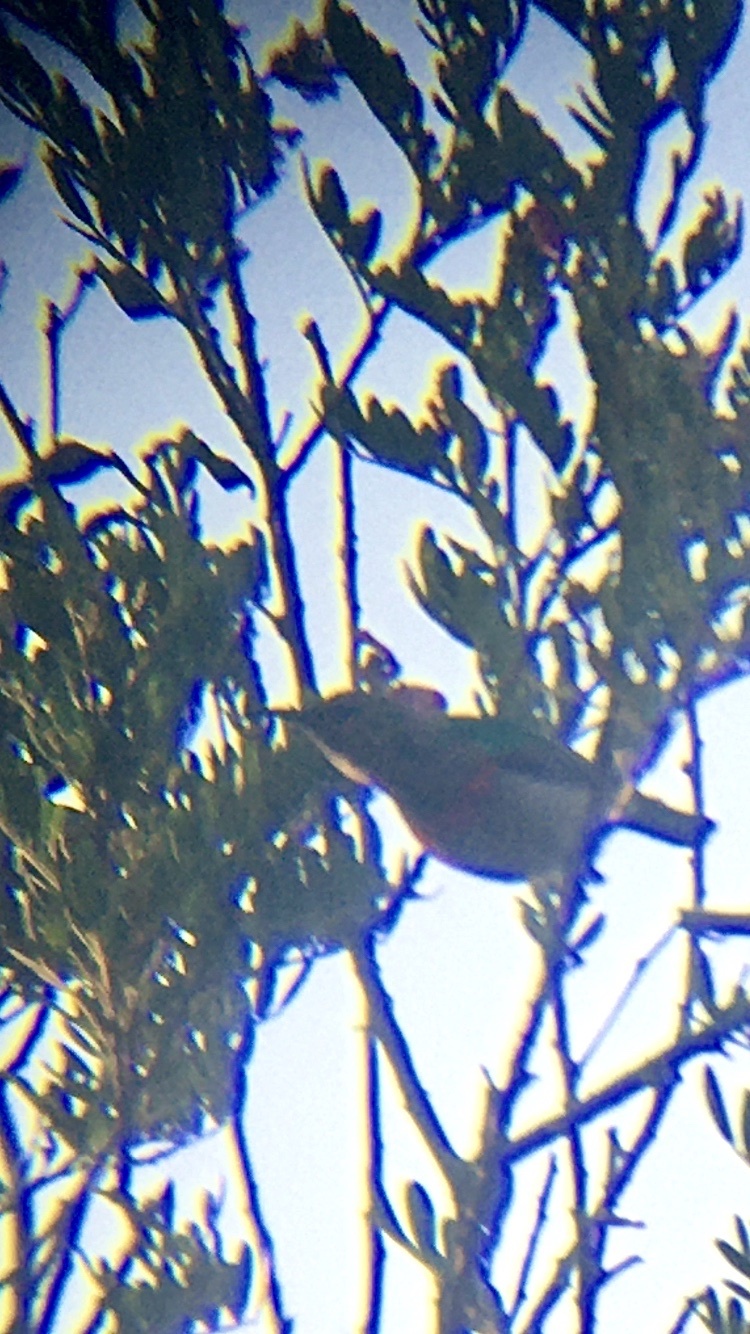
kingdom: Animalia
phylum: Chordata
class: Aves
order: Passeriformes
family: Nectariniidae
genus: Cinnyris
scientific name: Cinnyris chalybeus
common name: Southern double-collared sunbird
